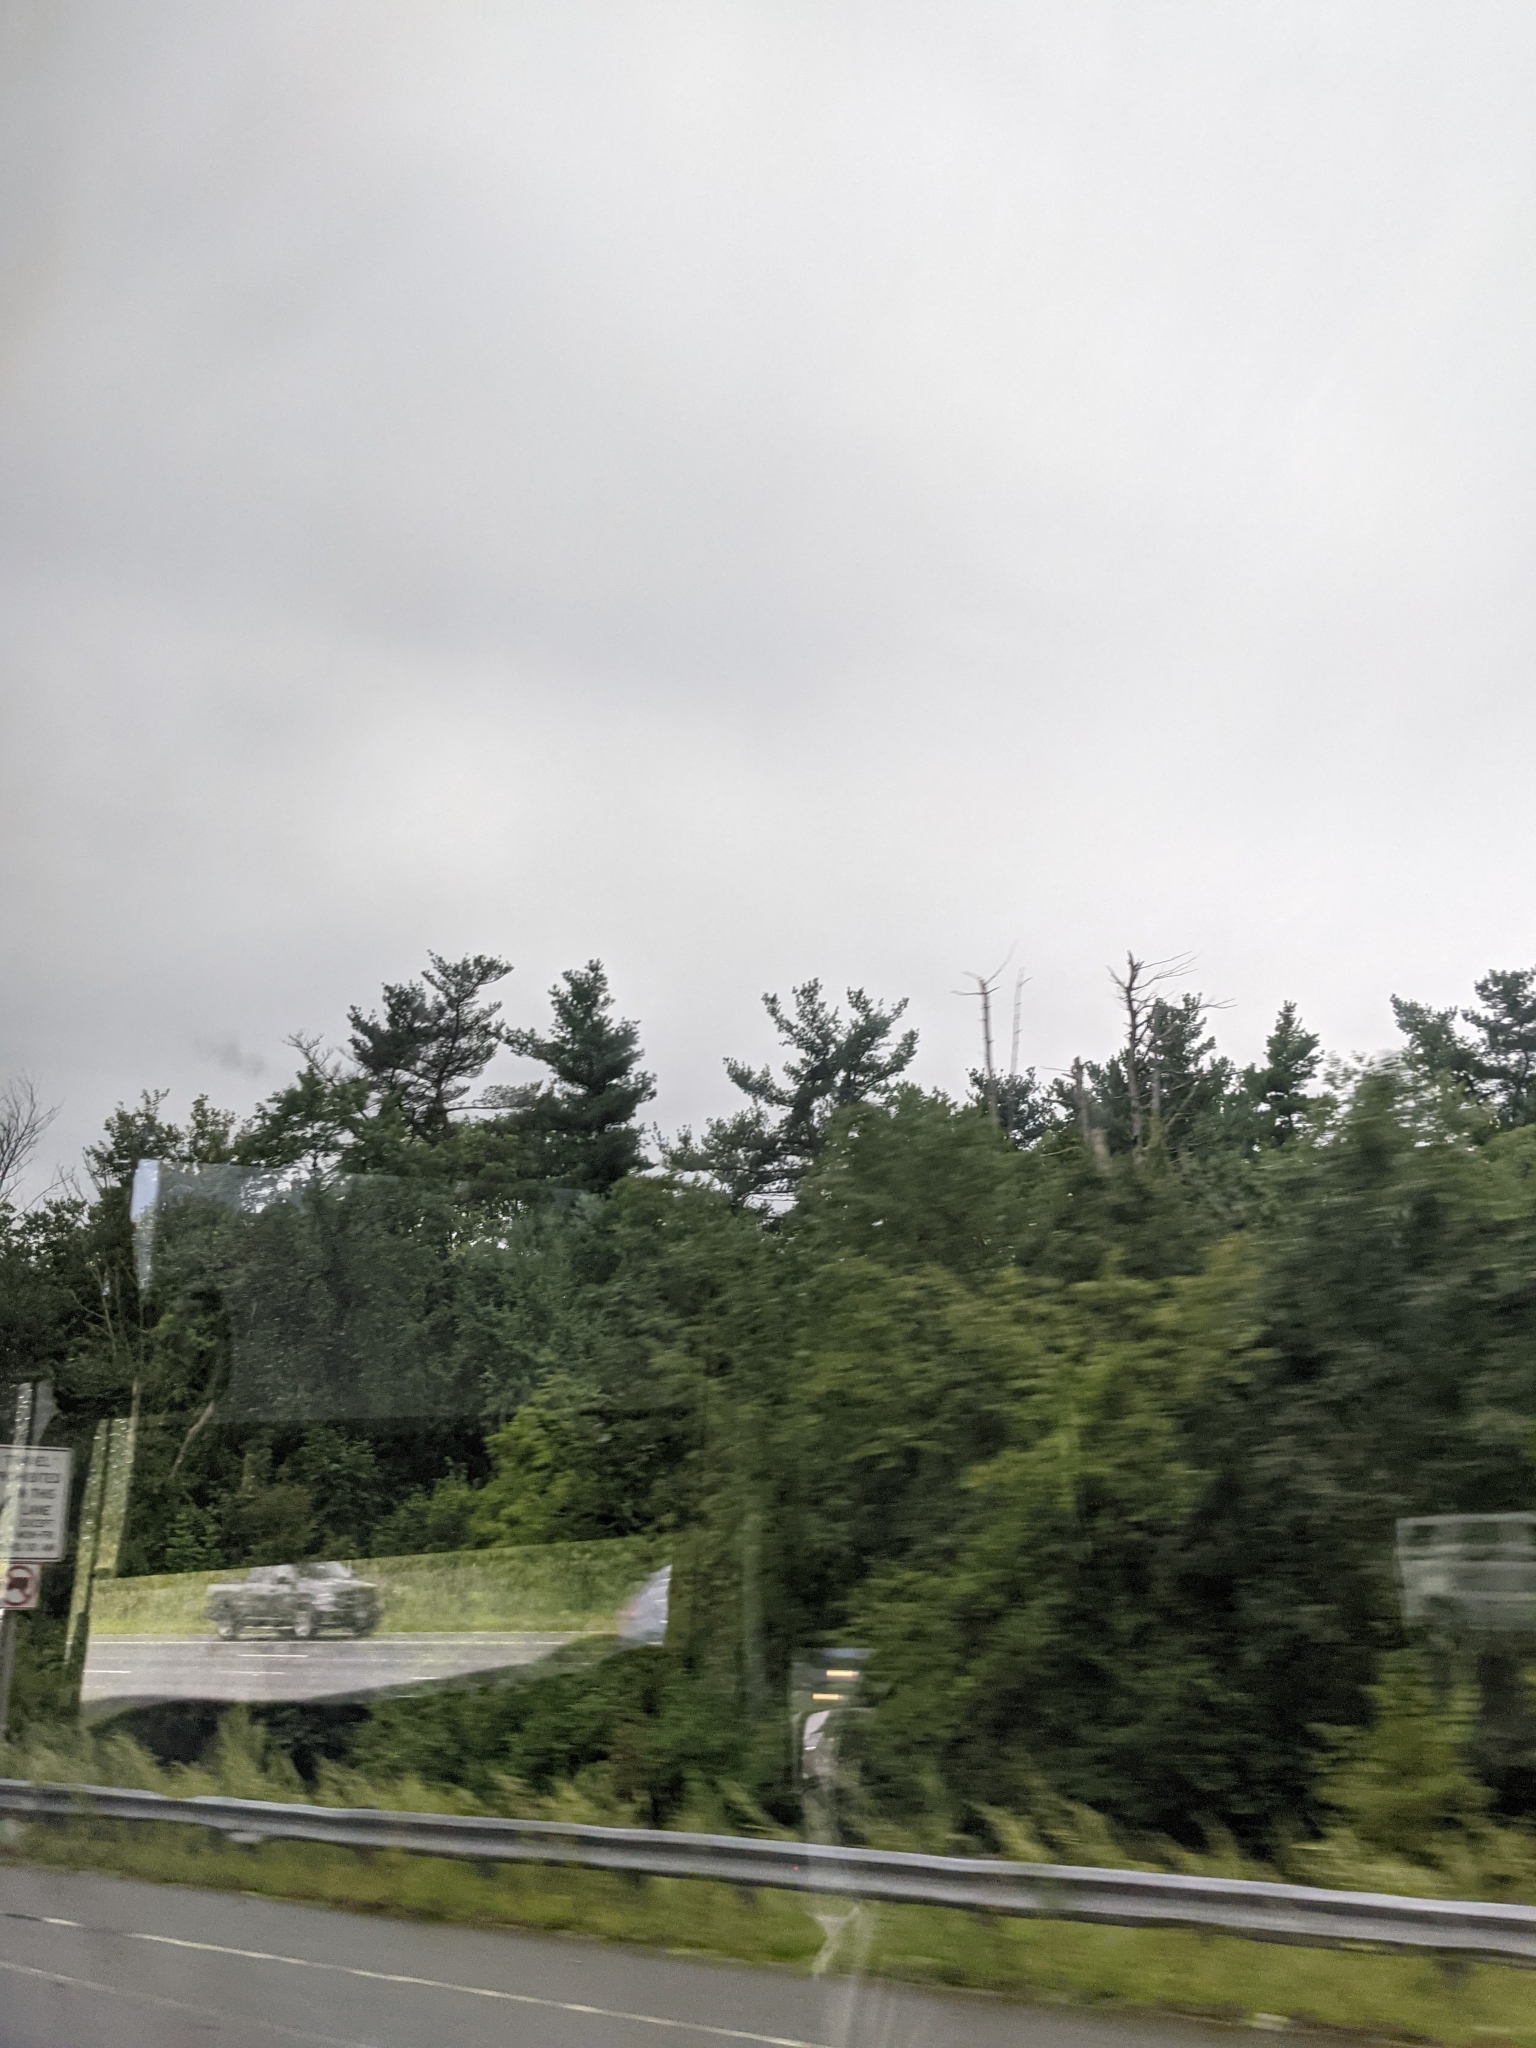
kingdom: Plantae
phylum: Tracheophyta
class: Pinopsida
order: Pinales
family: Pinaceae
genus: Pinus
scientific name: Pinus strobus
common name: Weymouth pine
